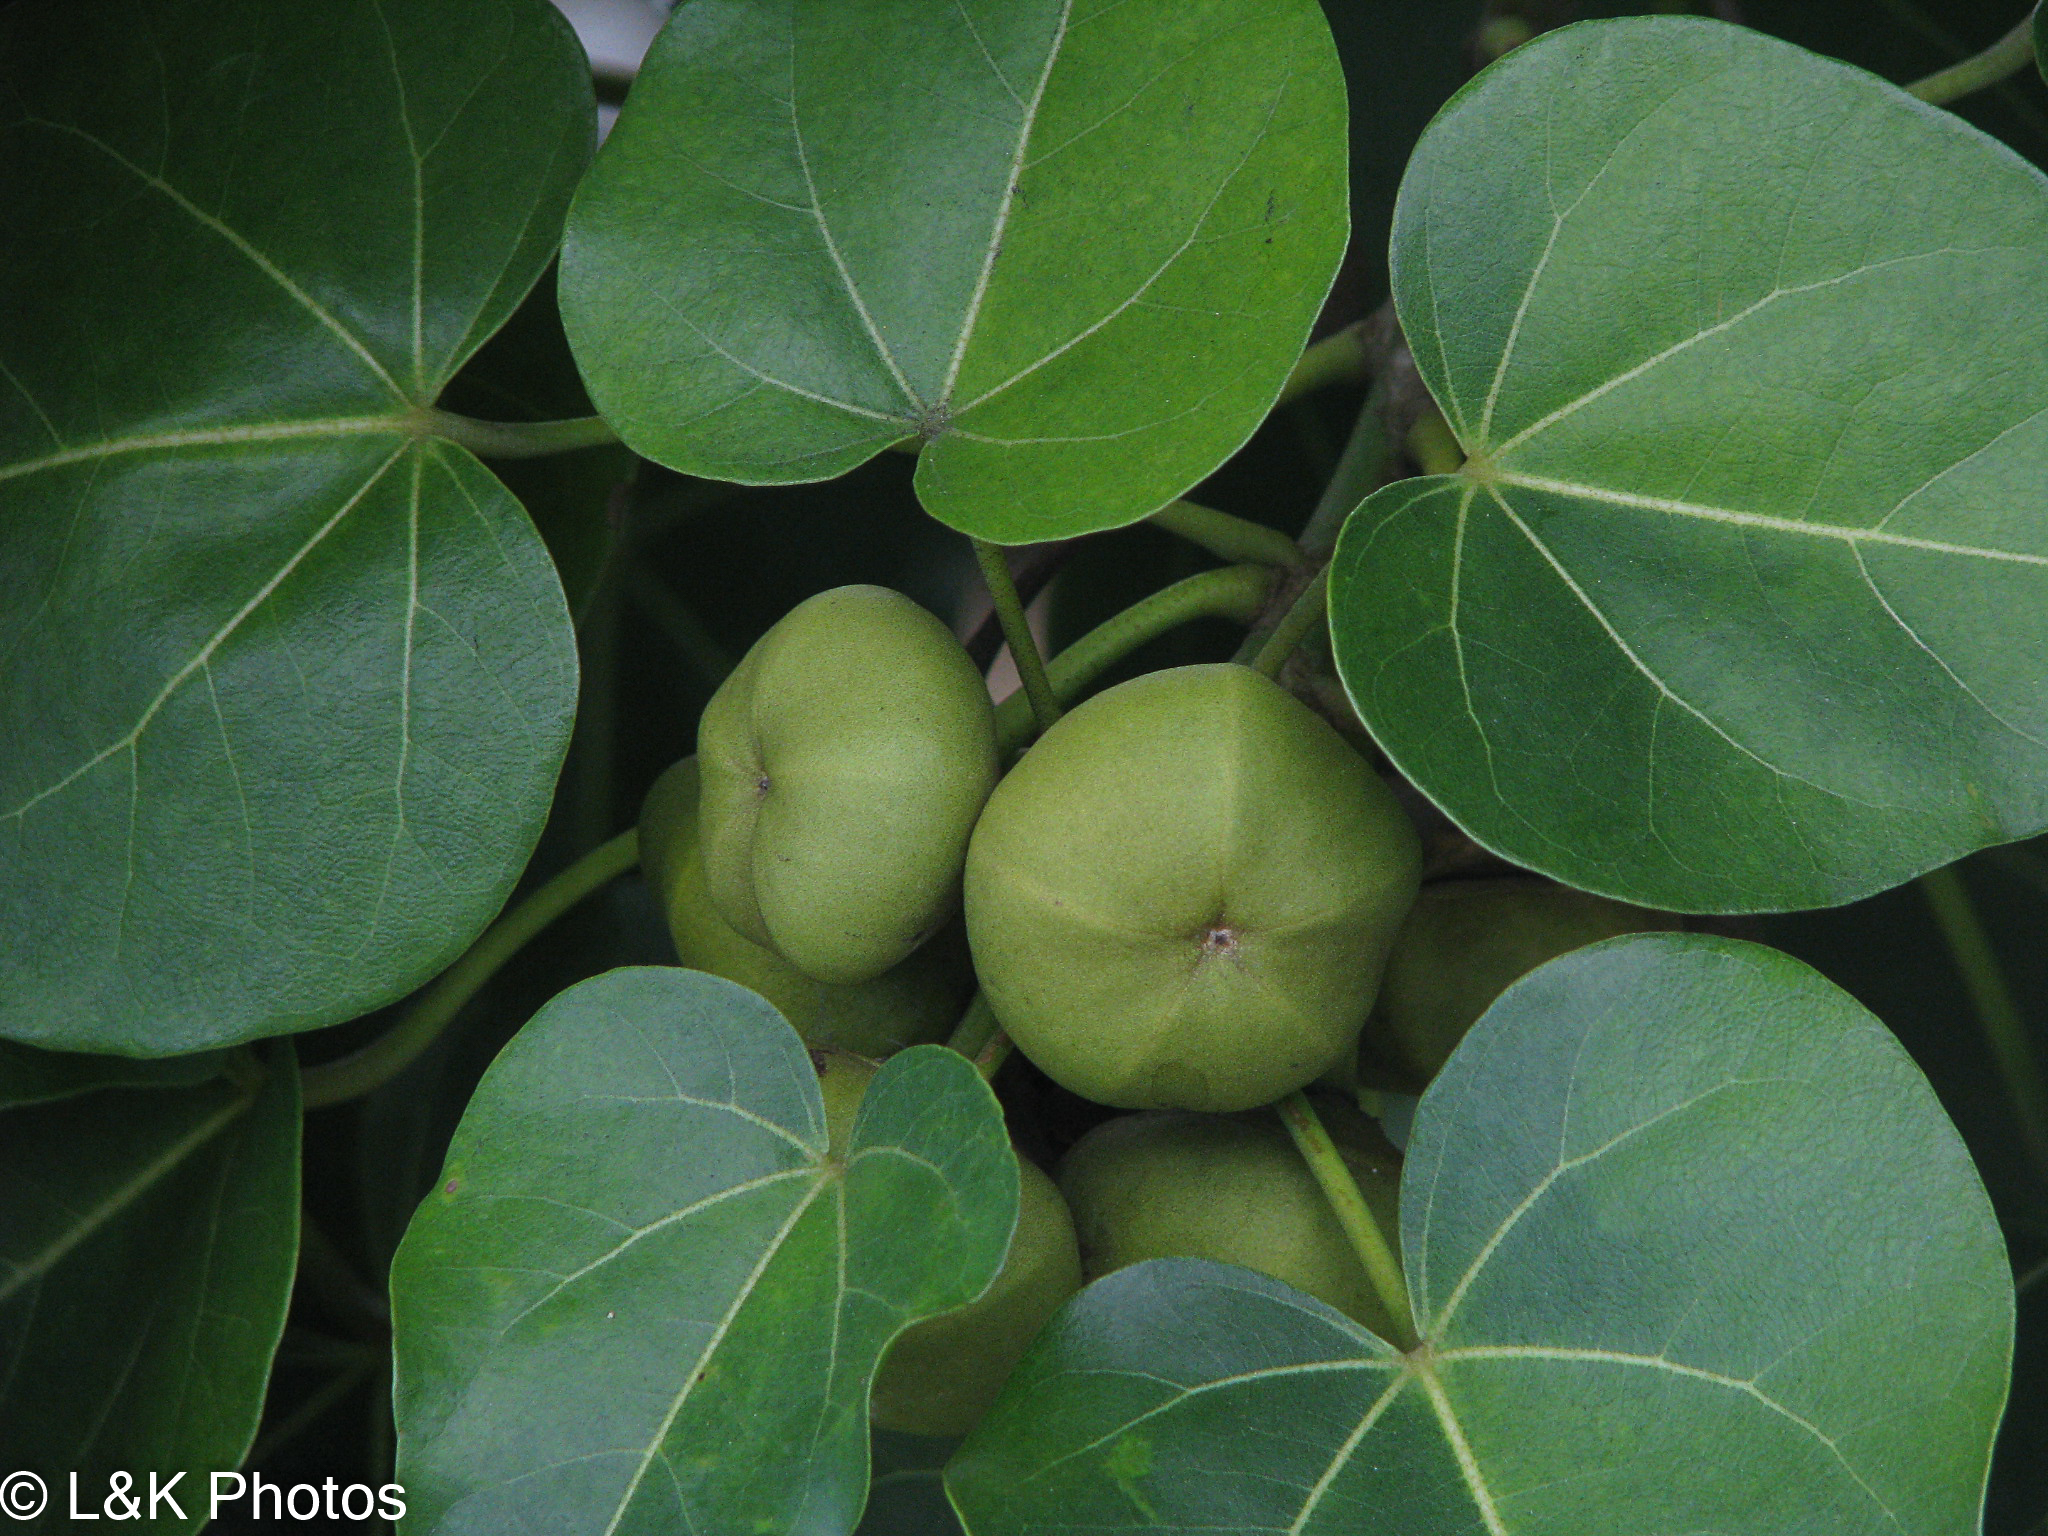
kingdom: Plantae
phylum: Tracheophyta
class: Magnoliopsida
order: Malvales
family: Malvaceae
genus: Thespesia
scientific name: Thespesia populnea
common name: Seaside mahoe
